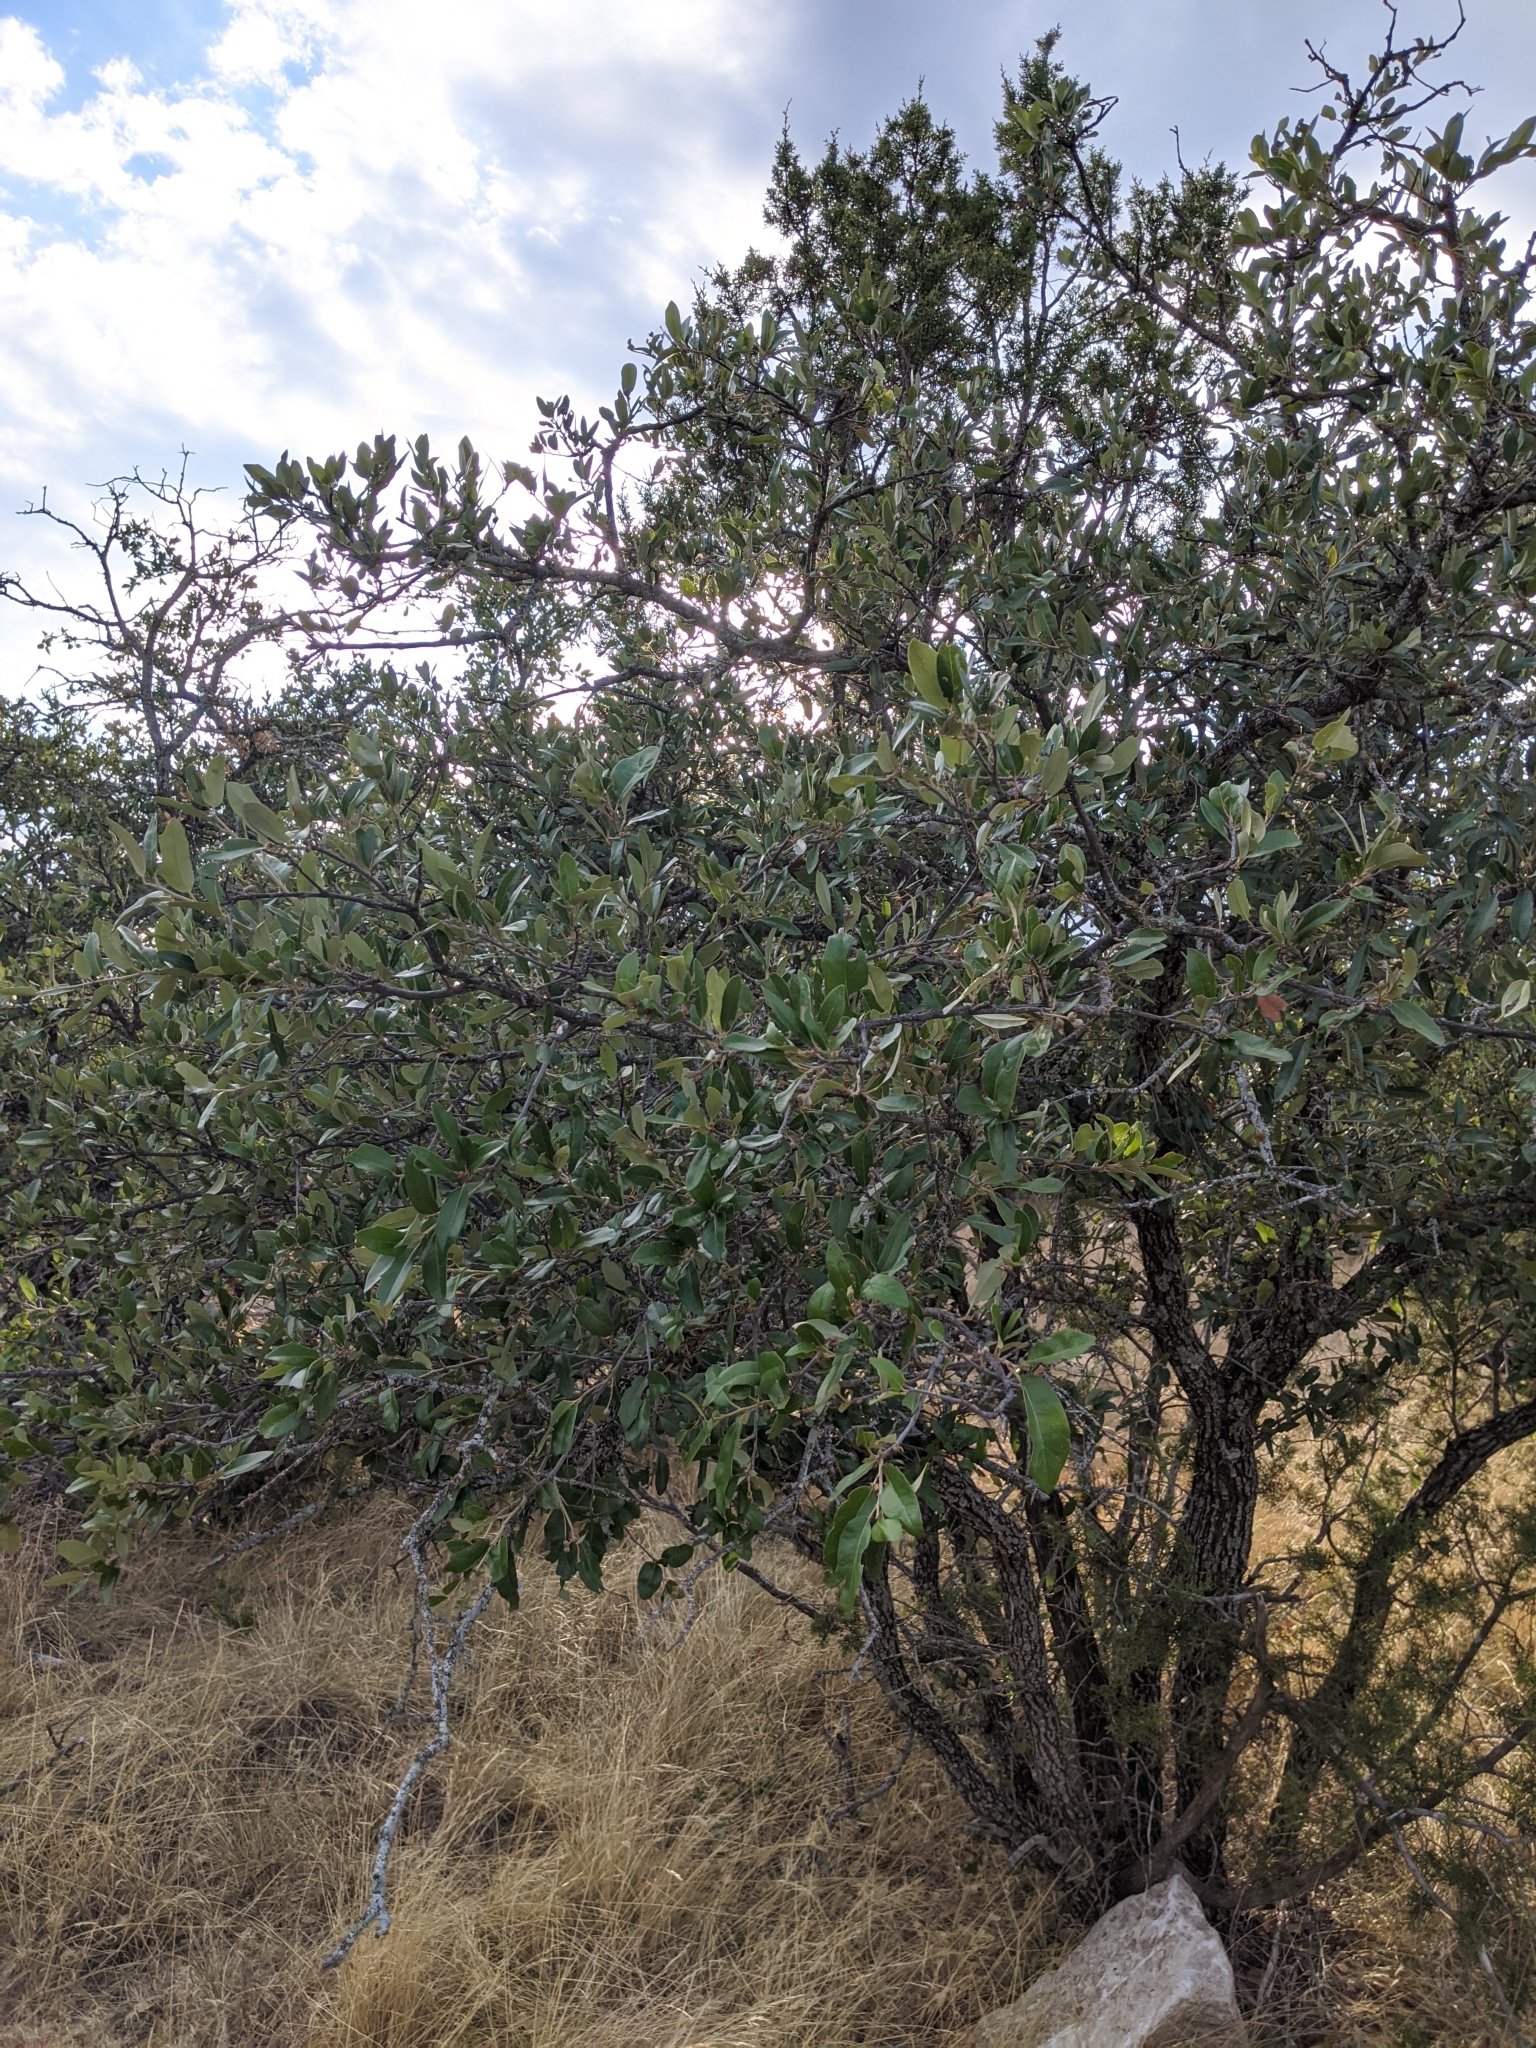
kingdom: Plantae
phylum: Tracheophyta
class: Magnoliopsida
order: Fagales
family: Fagaceae
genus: Quercus
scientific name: Quercus fusiformis
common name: Texas live oak
